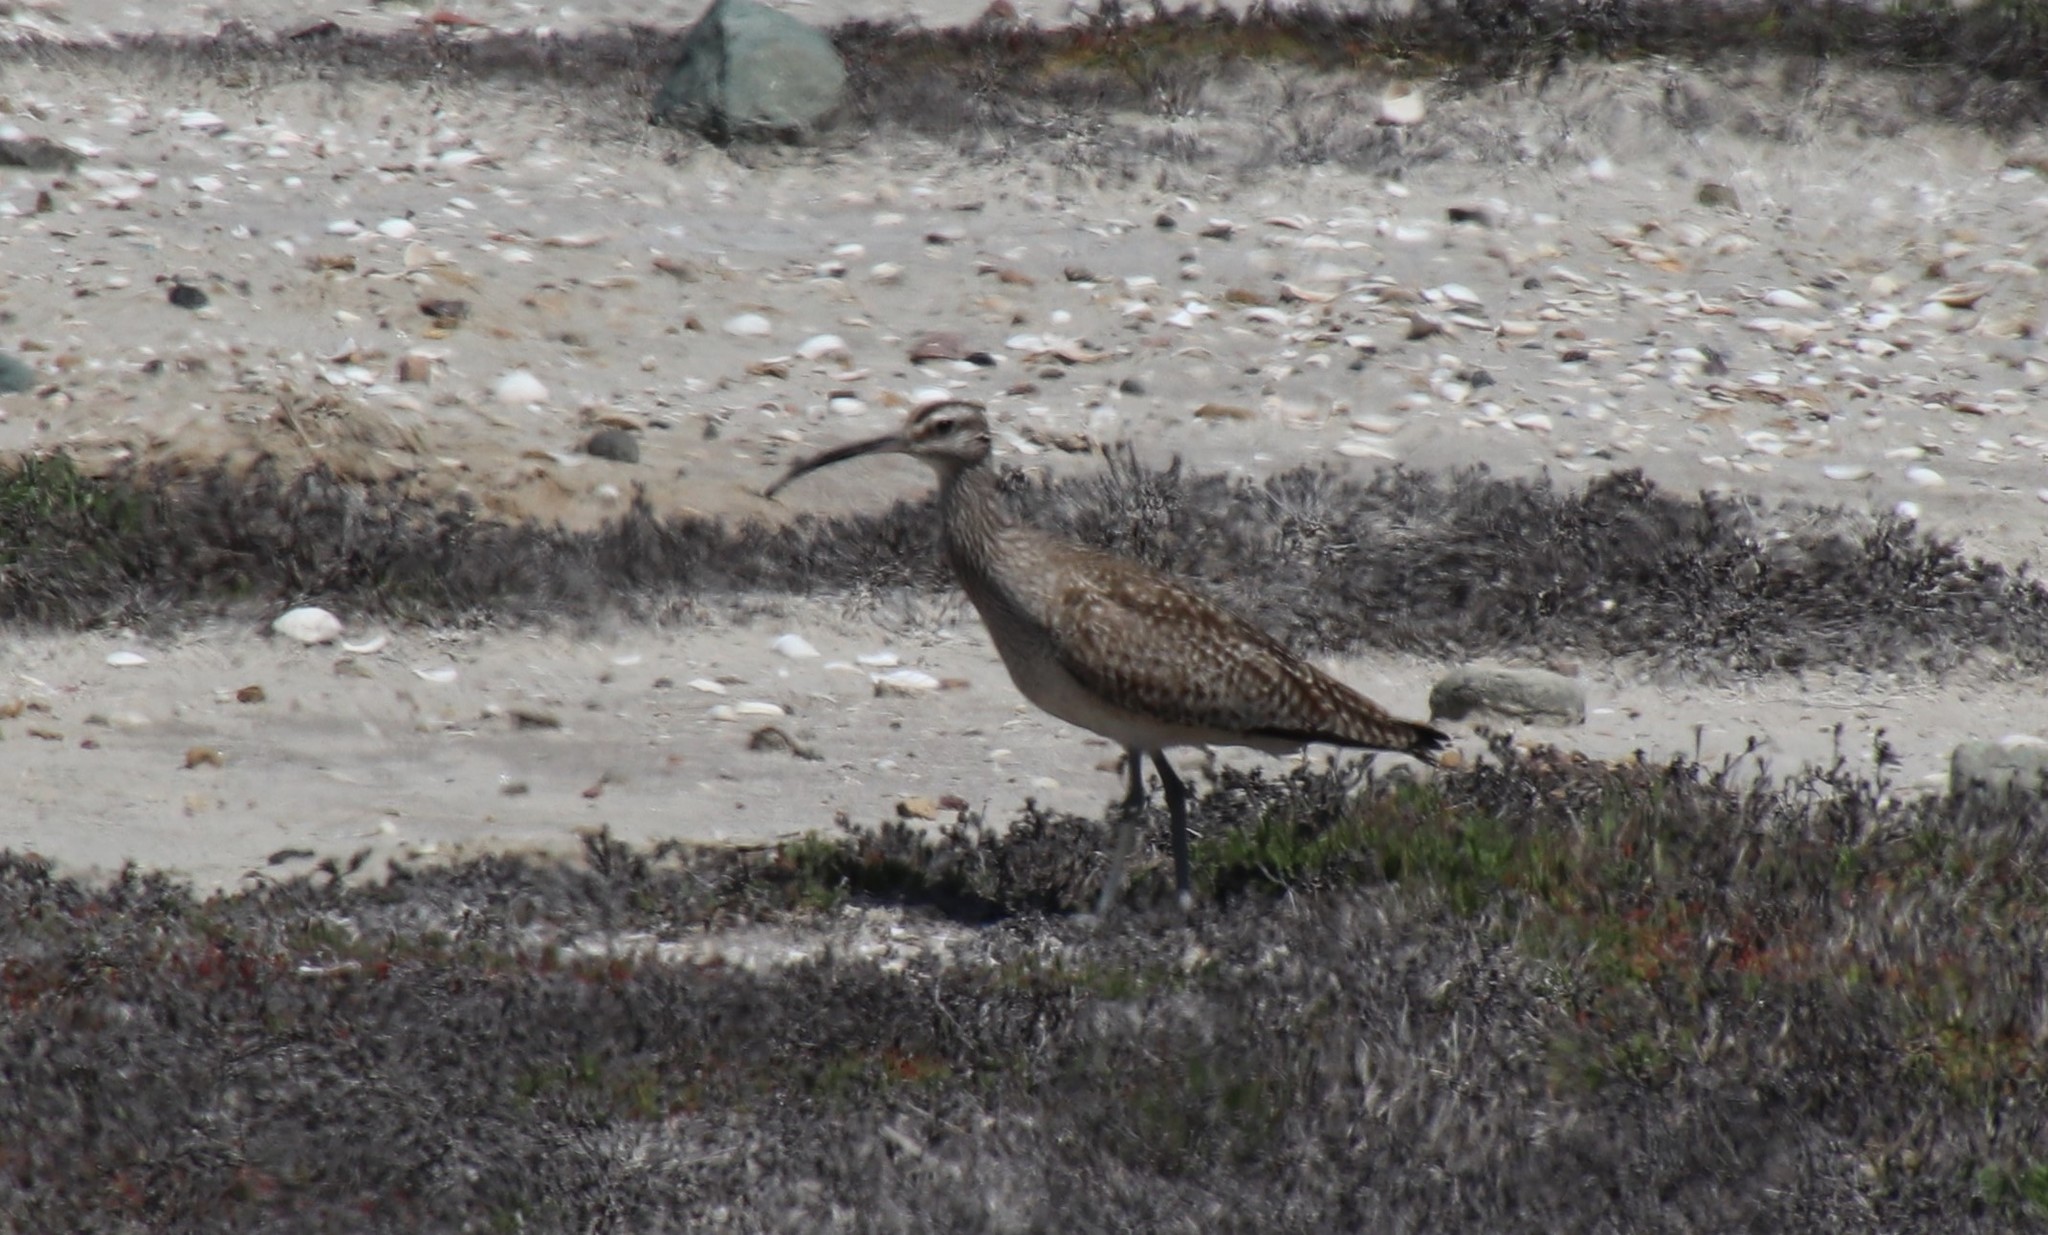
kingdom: Animalia
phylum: Chordata
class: Aves
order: Charadriiformes
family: Scolopacidae
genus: Numenius
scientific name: Numenius phaeopus
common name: Whimbrel
